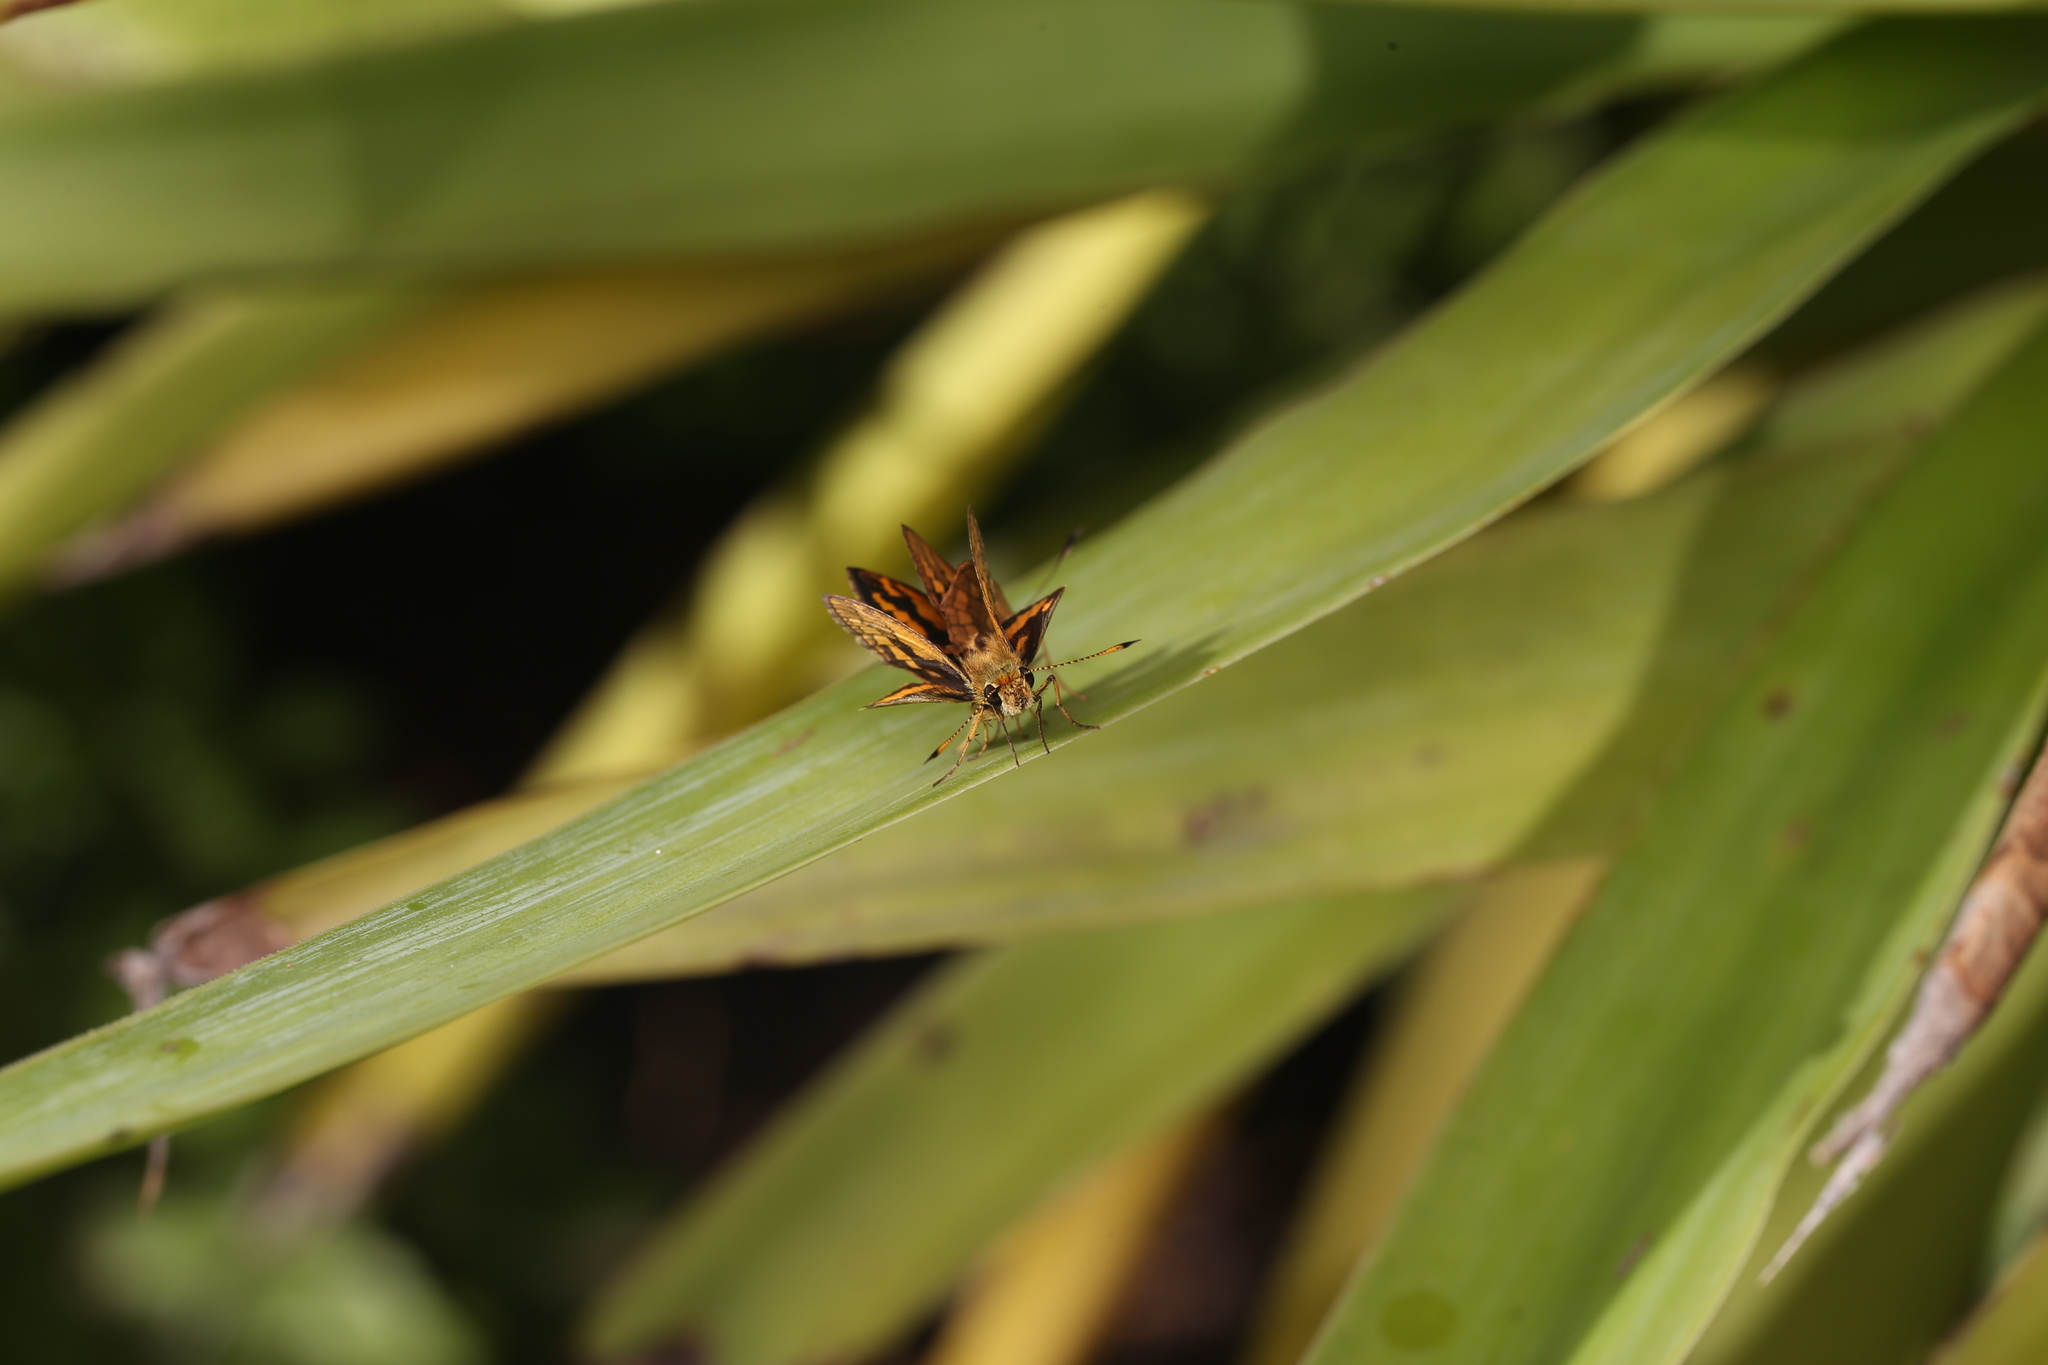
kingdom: Animalia
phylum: Arthropoda
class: Insecta
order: Lepidoptera
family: Hesperiidae
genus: Suniana
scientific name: Suniana sunias
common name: Wide-brand grass-dart
